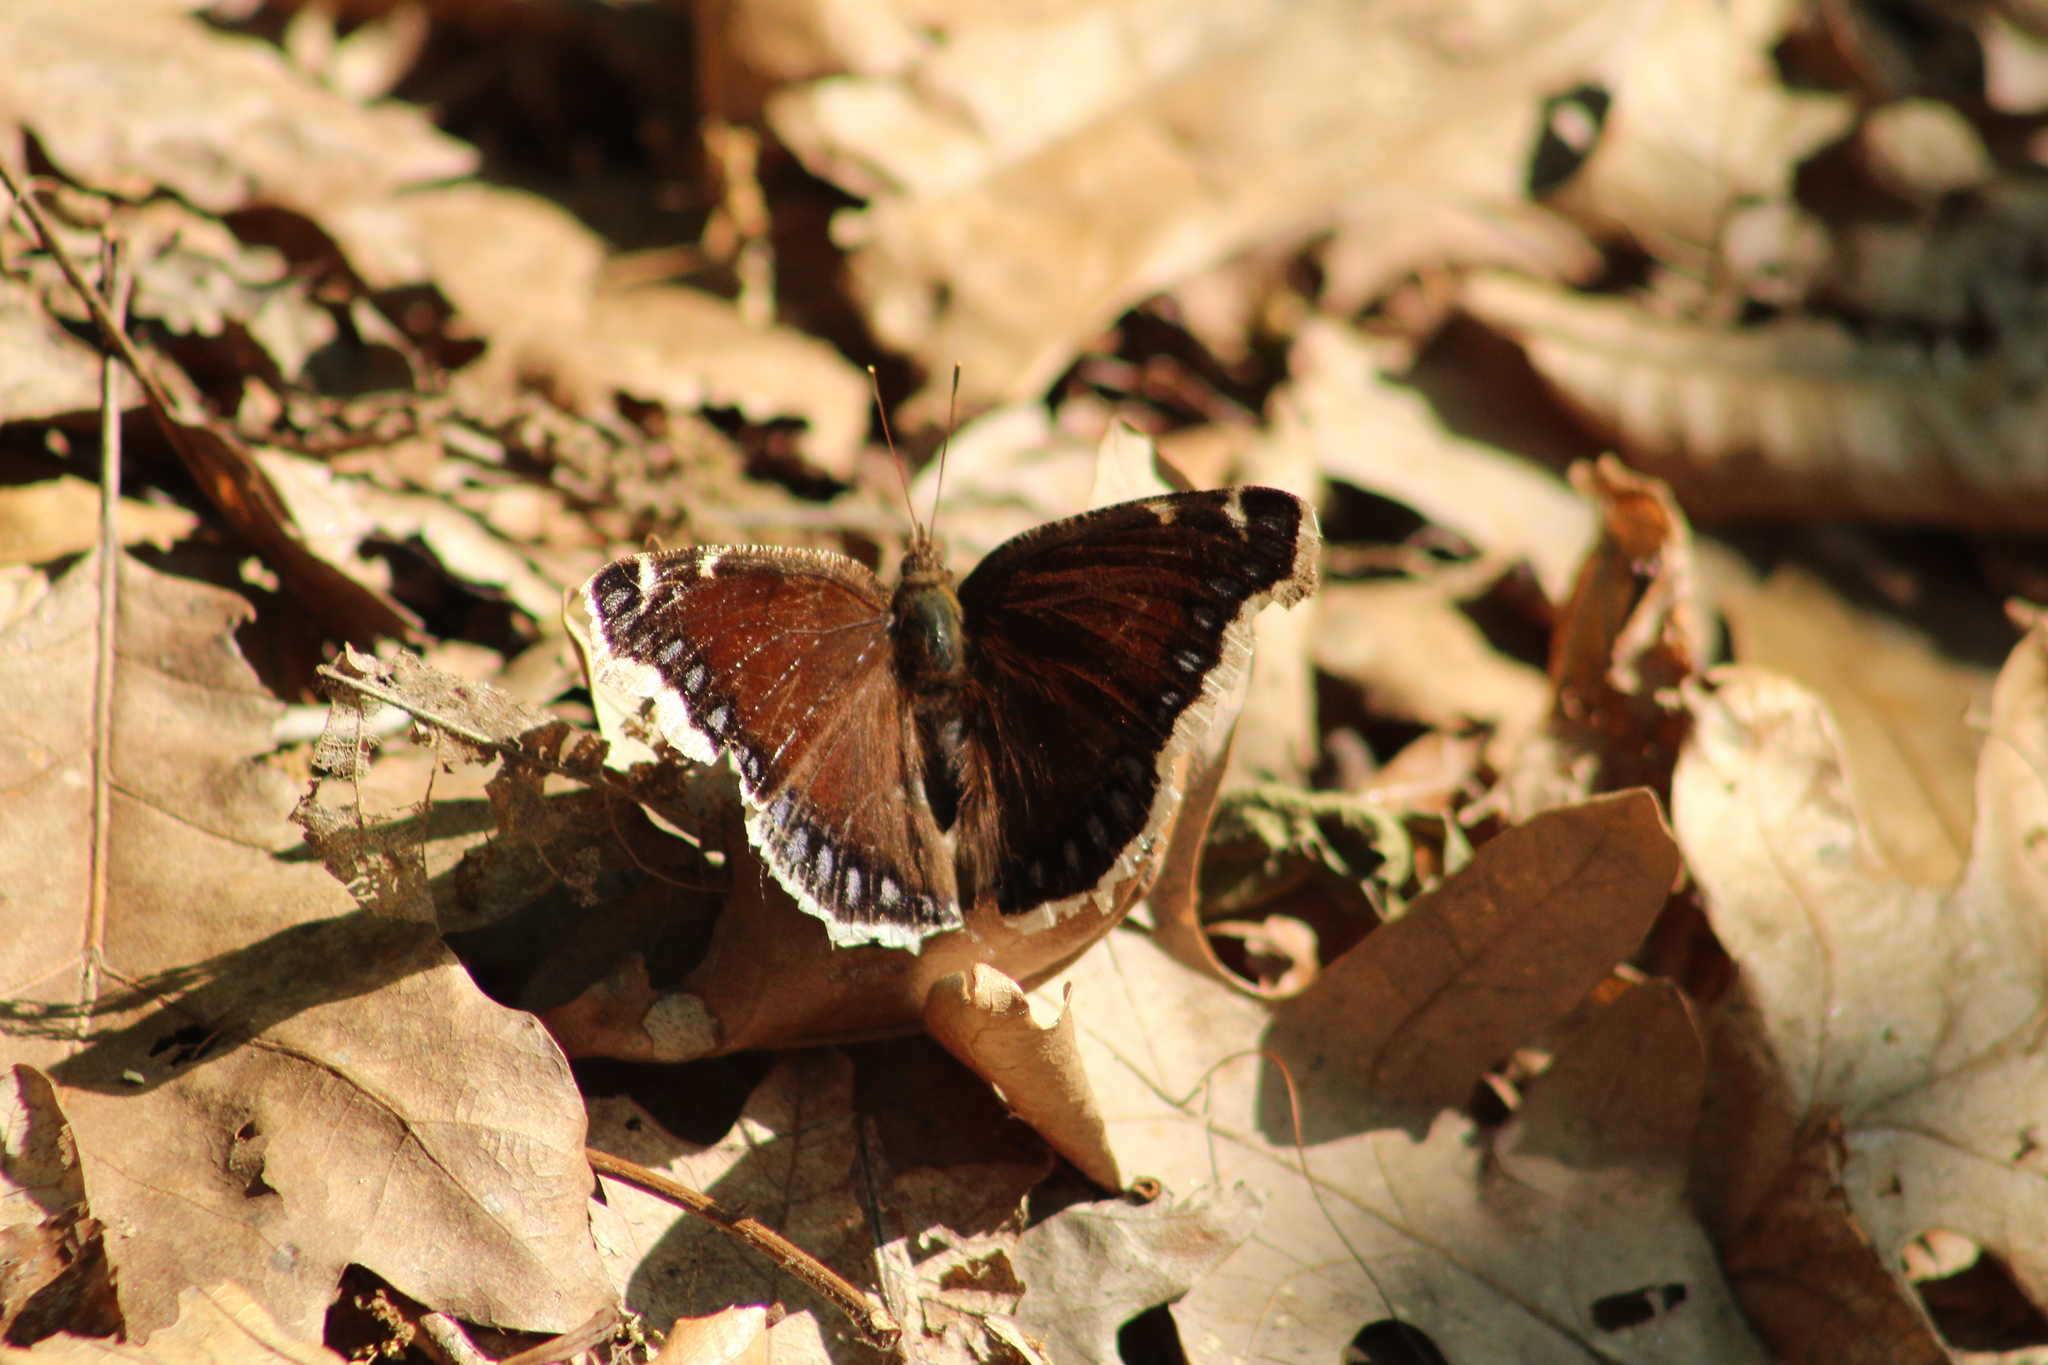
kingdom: Animalia
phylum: Arthropoda
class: Insecta
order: Lepidoptera
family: Nymphalidae
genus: Nymphalis
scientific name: Nymphalis antiopa
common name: Camberwell beauty
